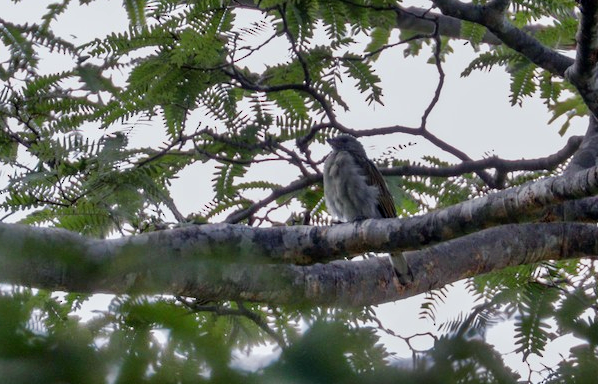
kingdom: Animalia
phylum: Chordata
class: Aves
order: Piciformes
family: Indicatoridae
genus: Indicator
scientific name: Indicator minor
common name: Lesser honeyguide
